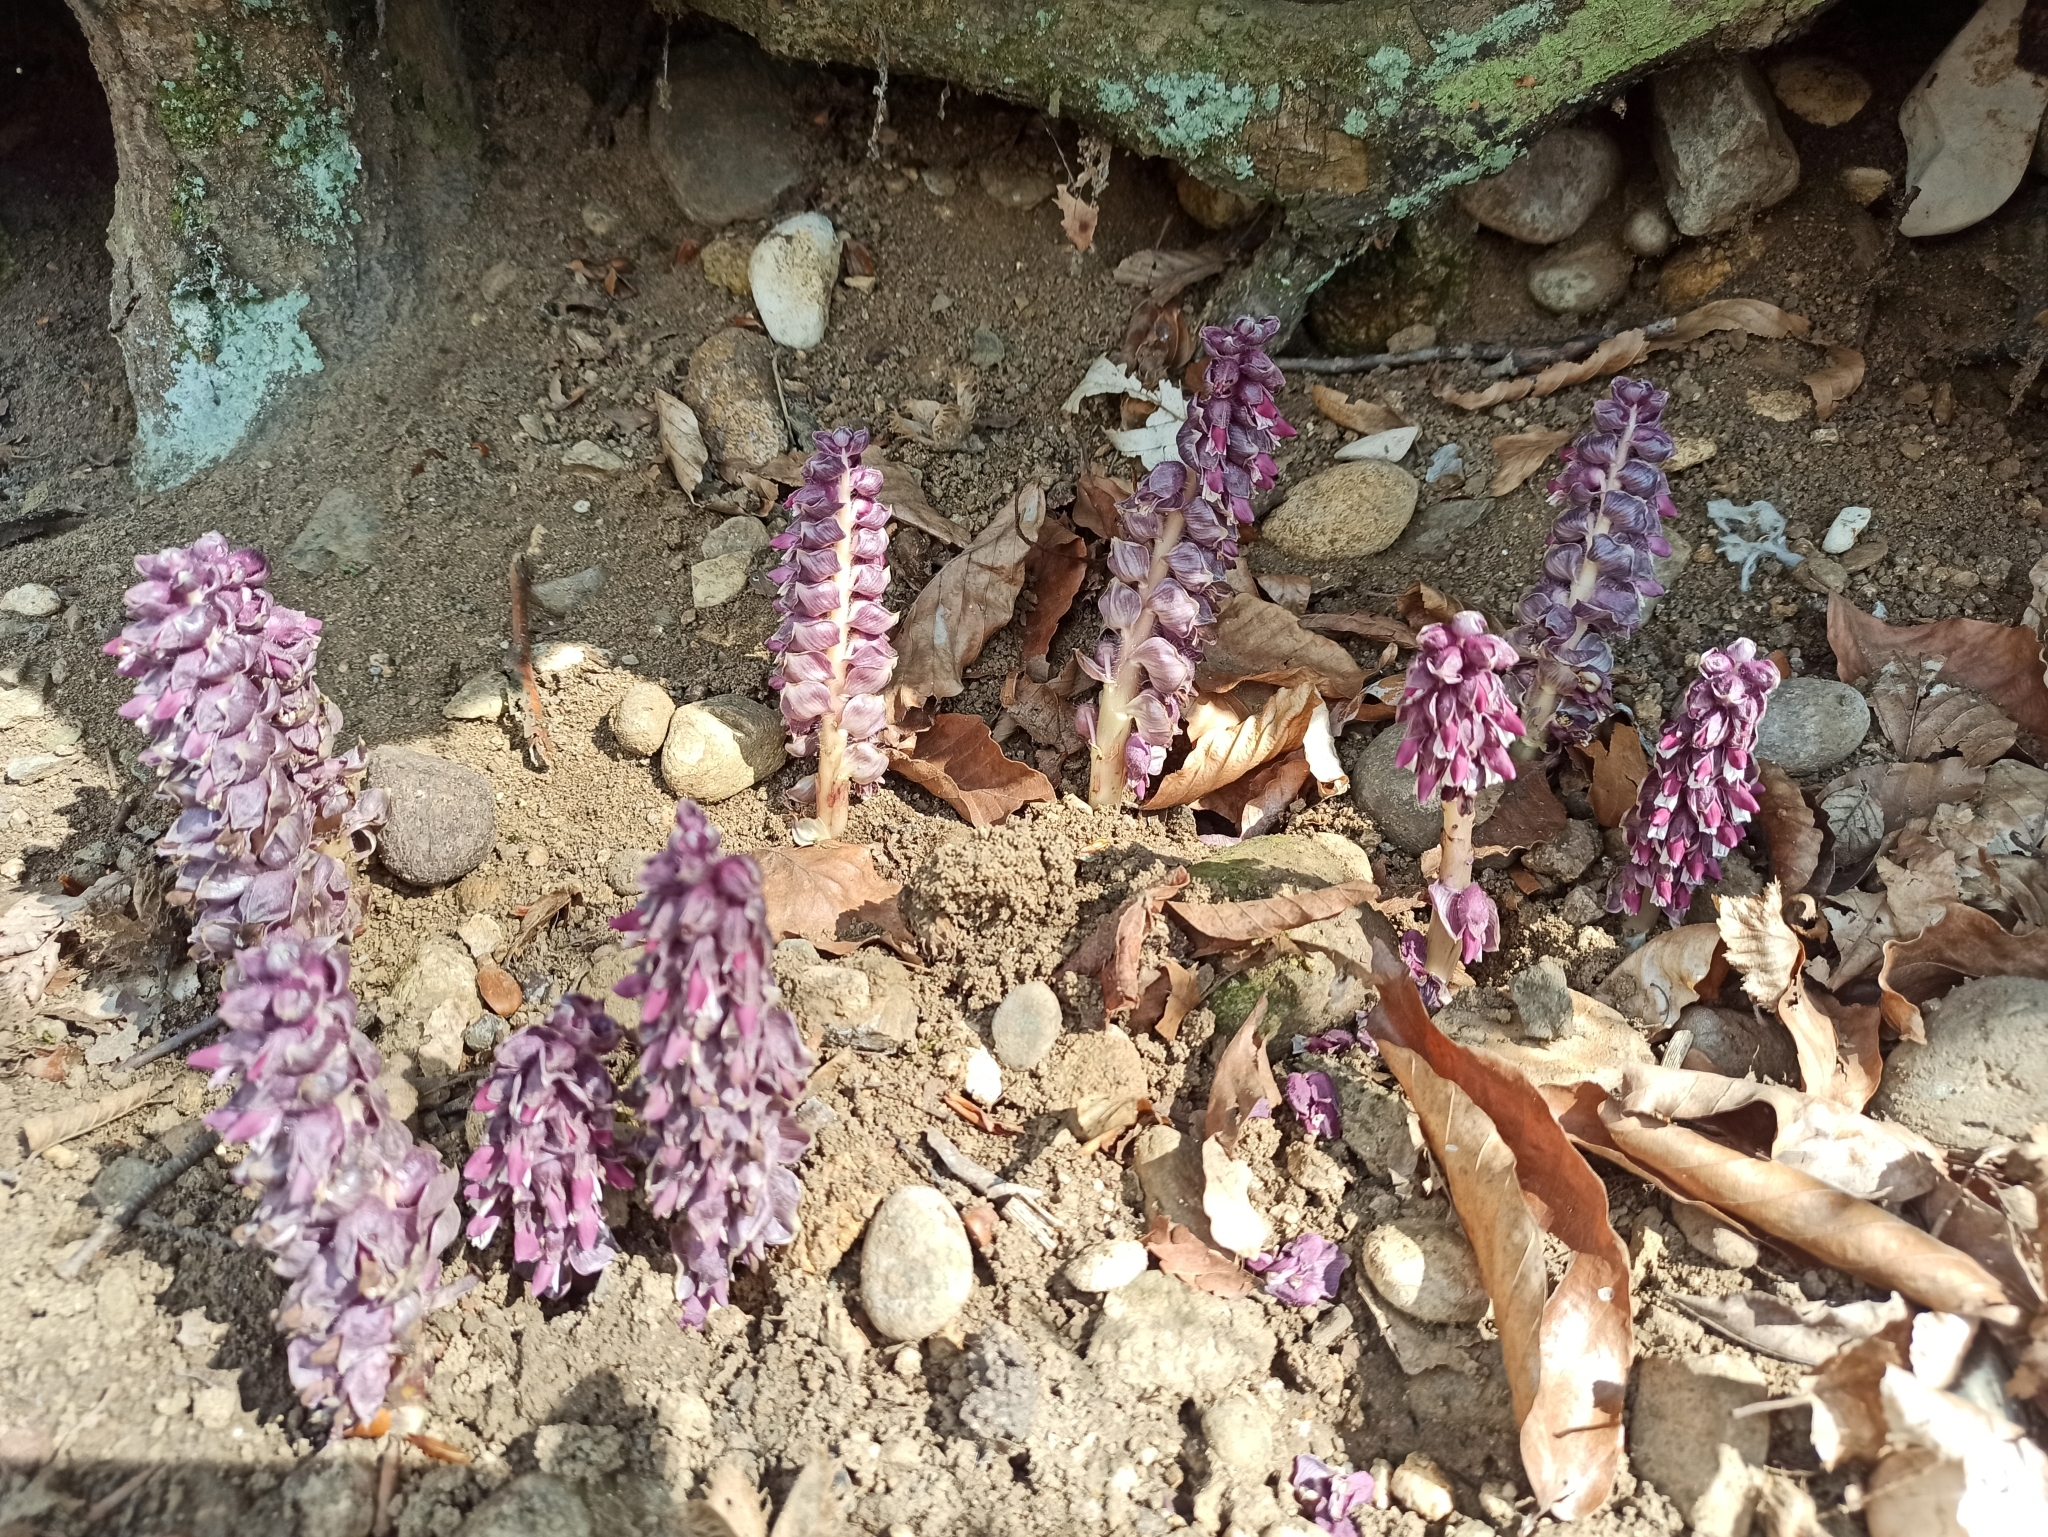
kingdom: Plantae
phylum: Tracheophyta
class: Magnoliopsida
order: Lamiales
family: Orobanchaceae
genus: Lathraea
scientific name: Lathraea squamaria
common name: Toothwort
